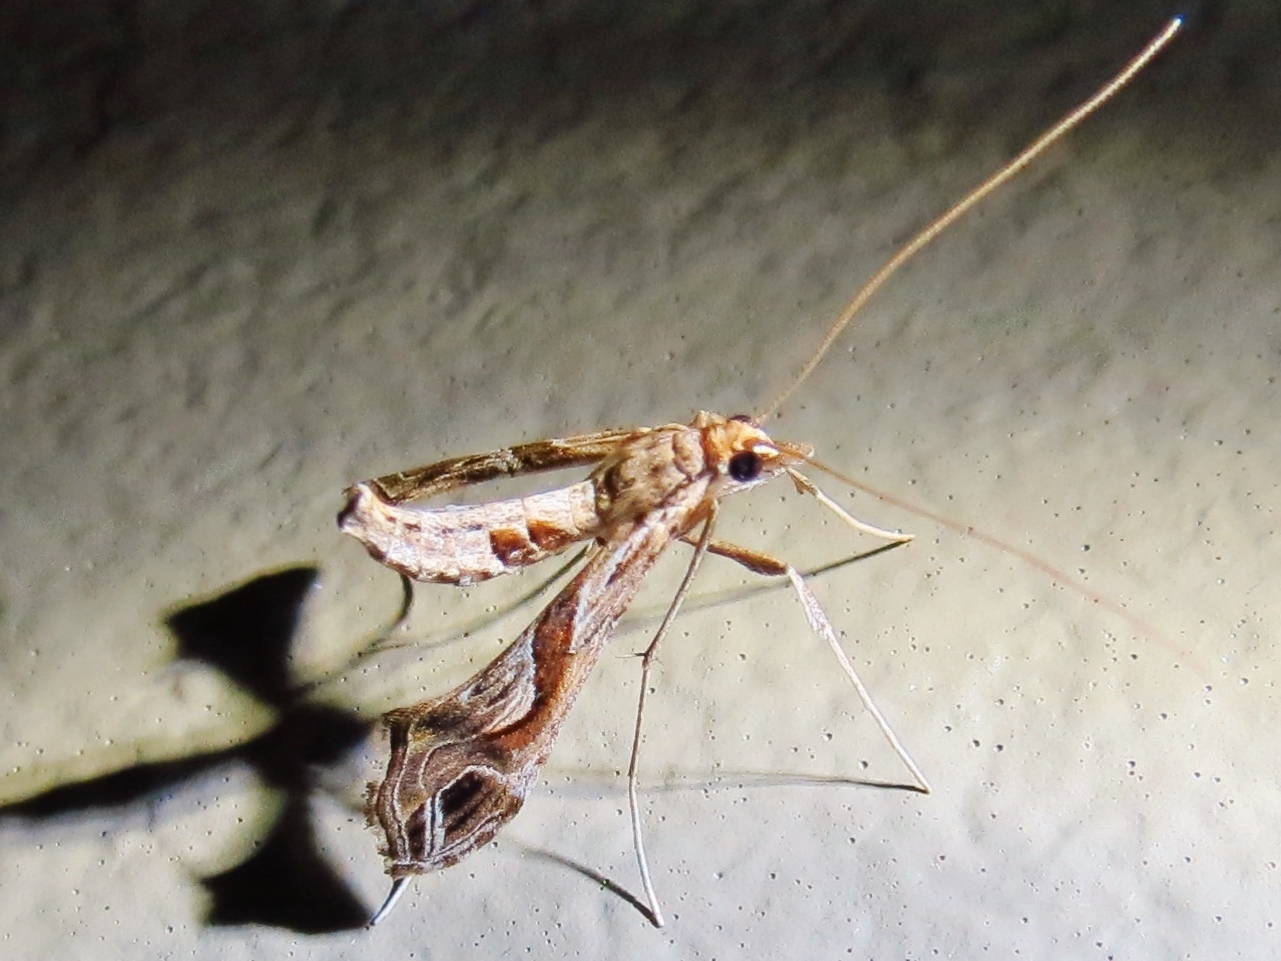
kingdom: Animalia
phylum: Arthropoda
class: Insecta
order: Lepidoptera
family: Crambidae
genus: Lineodes
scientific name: Lineodes integra
